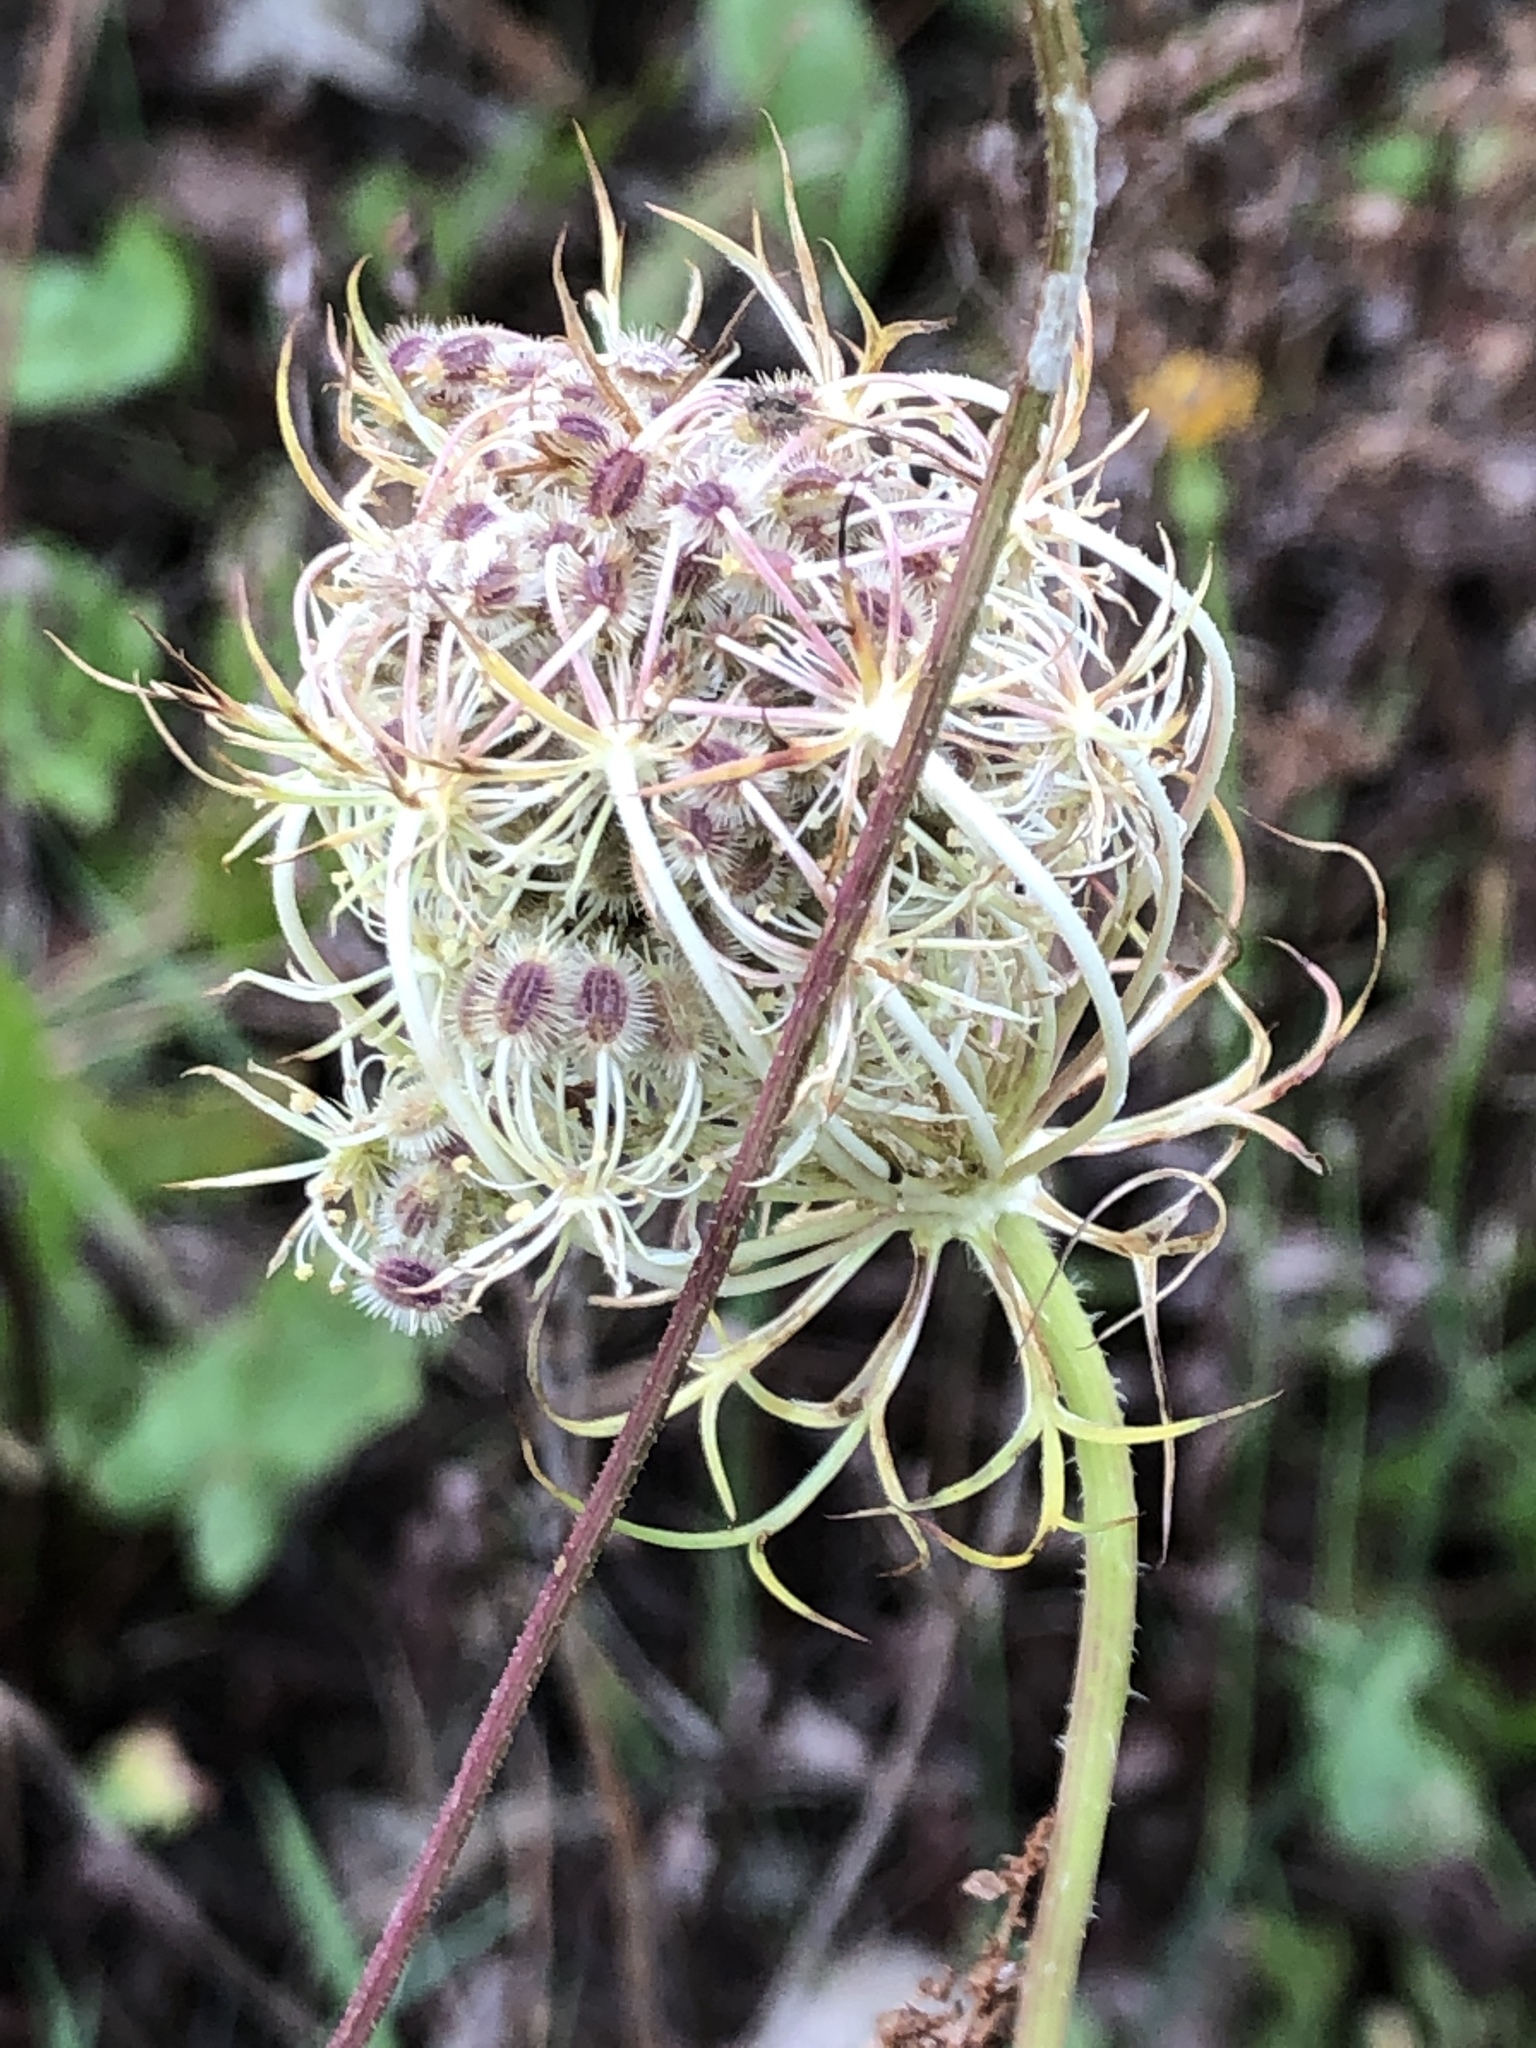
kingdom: Plantae
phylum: Tracheophyta
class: Magnoliopsida
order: Apiales
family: Apiaceae
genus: Daucus
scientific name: Daucus carota
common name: Wild carrot
